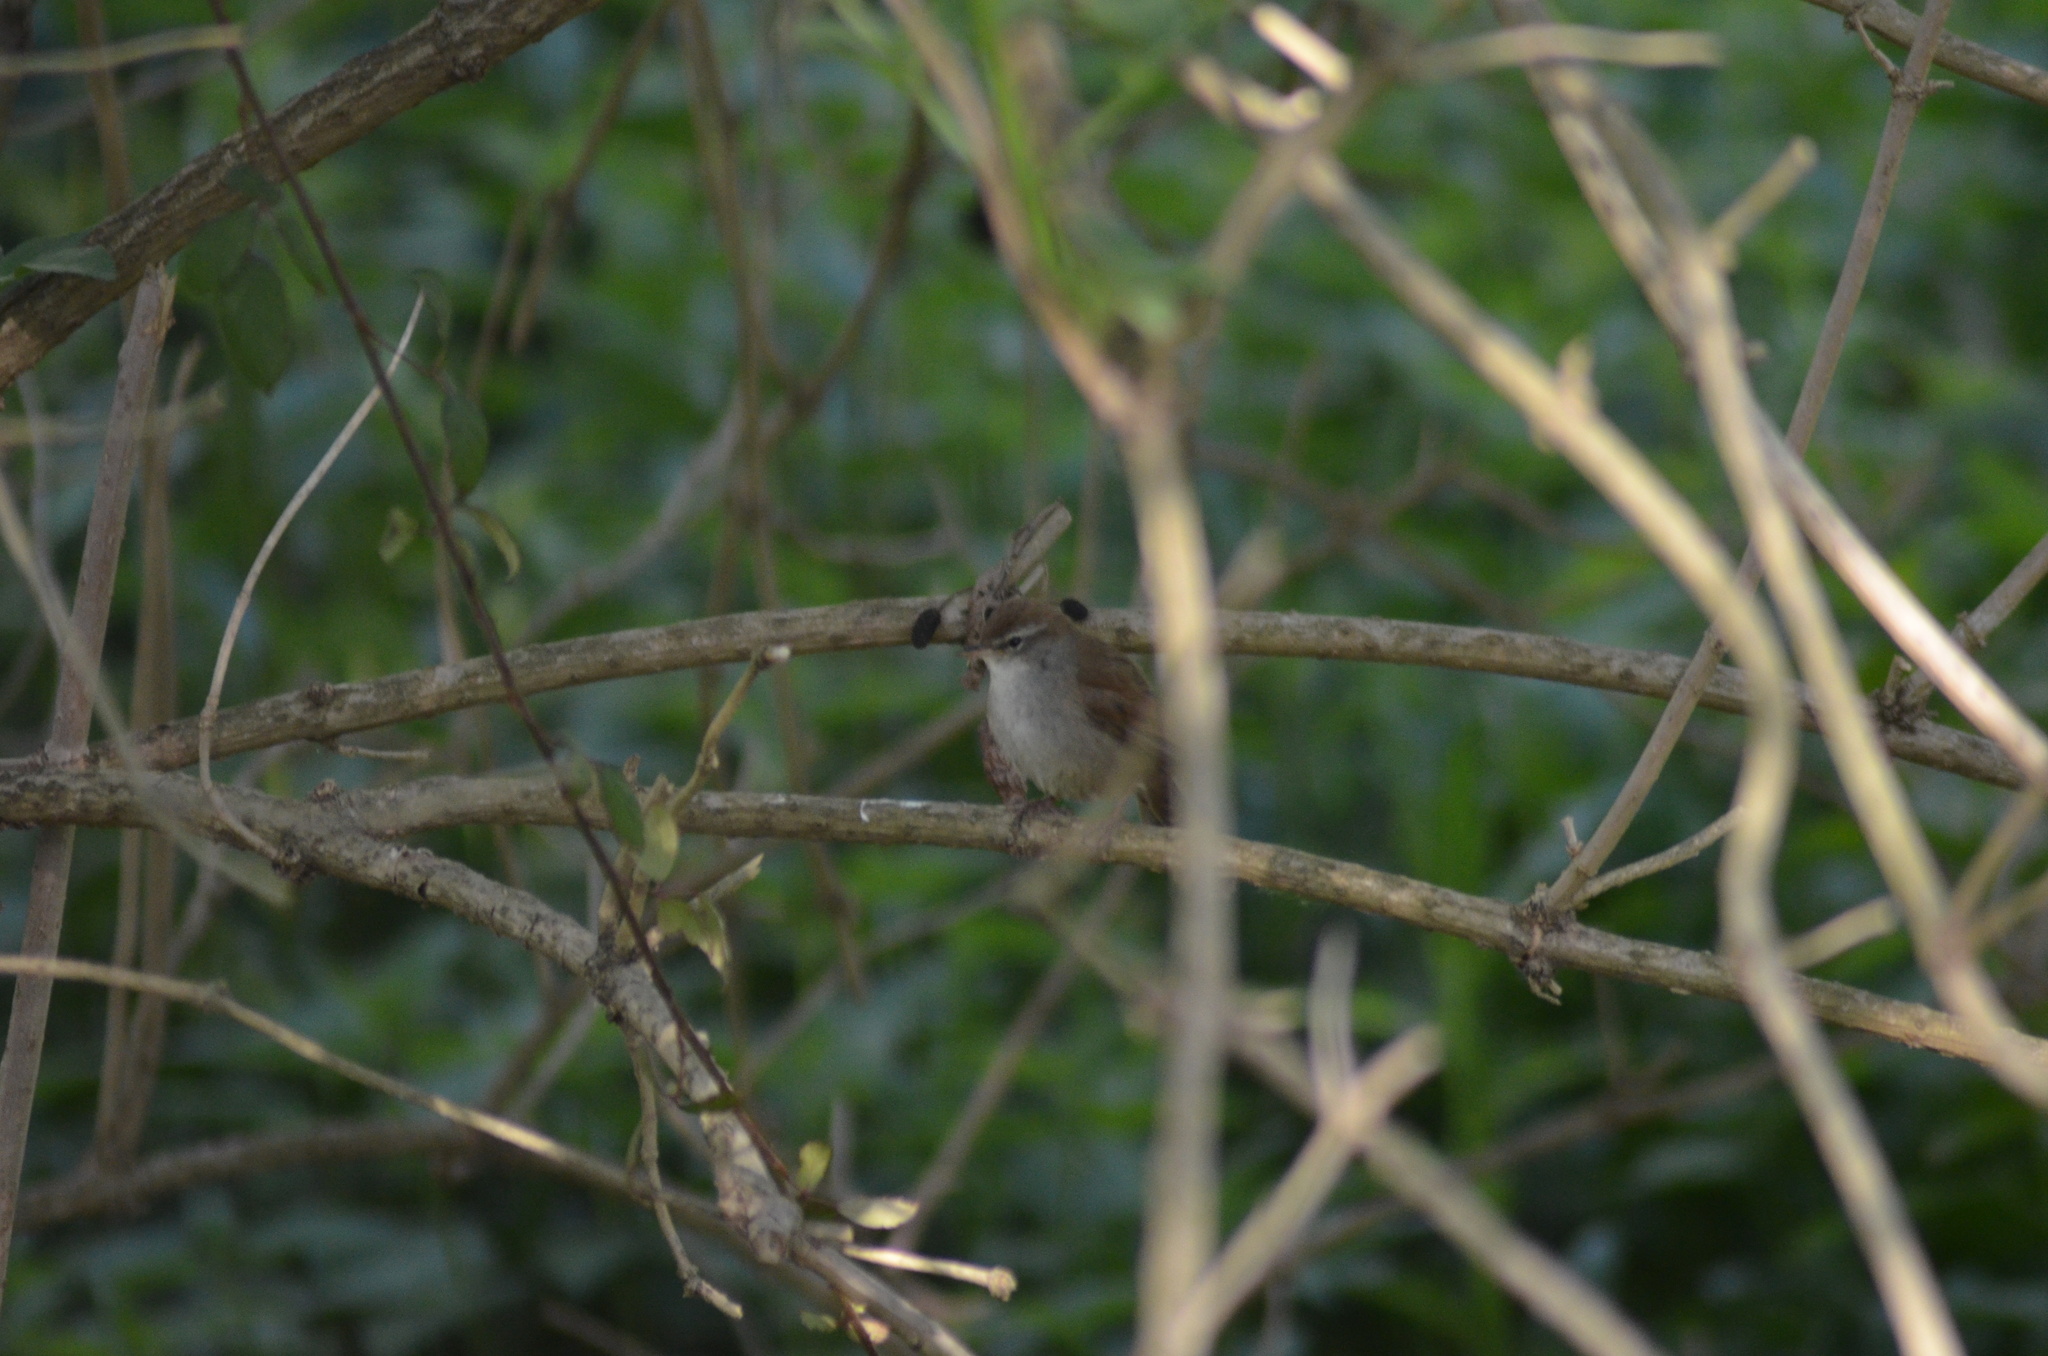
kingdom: Animalia
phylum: Chordata
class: Aves
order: Passeriformes
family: Cettiidae
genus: Cettia
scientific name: Cettia cetti
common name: Cetti's warbler
